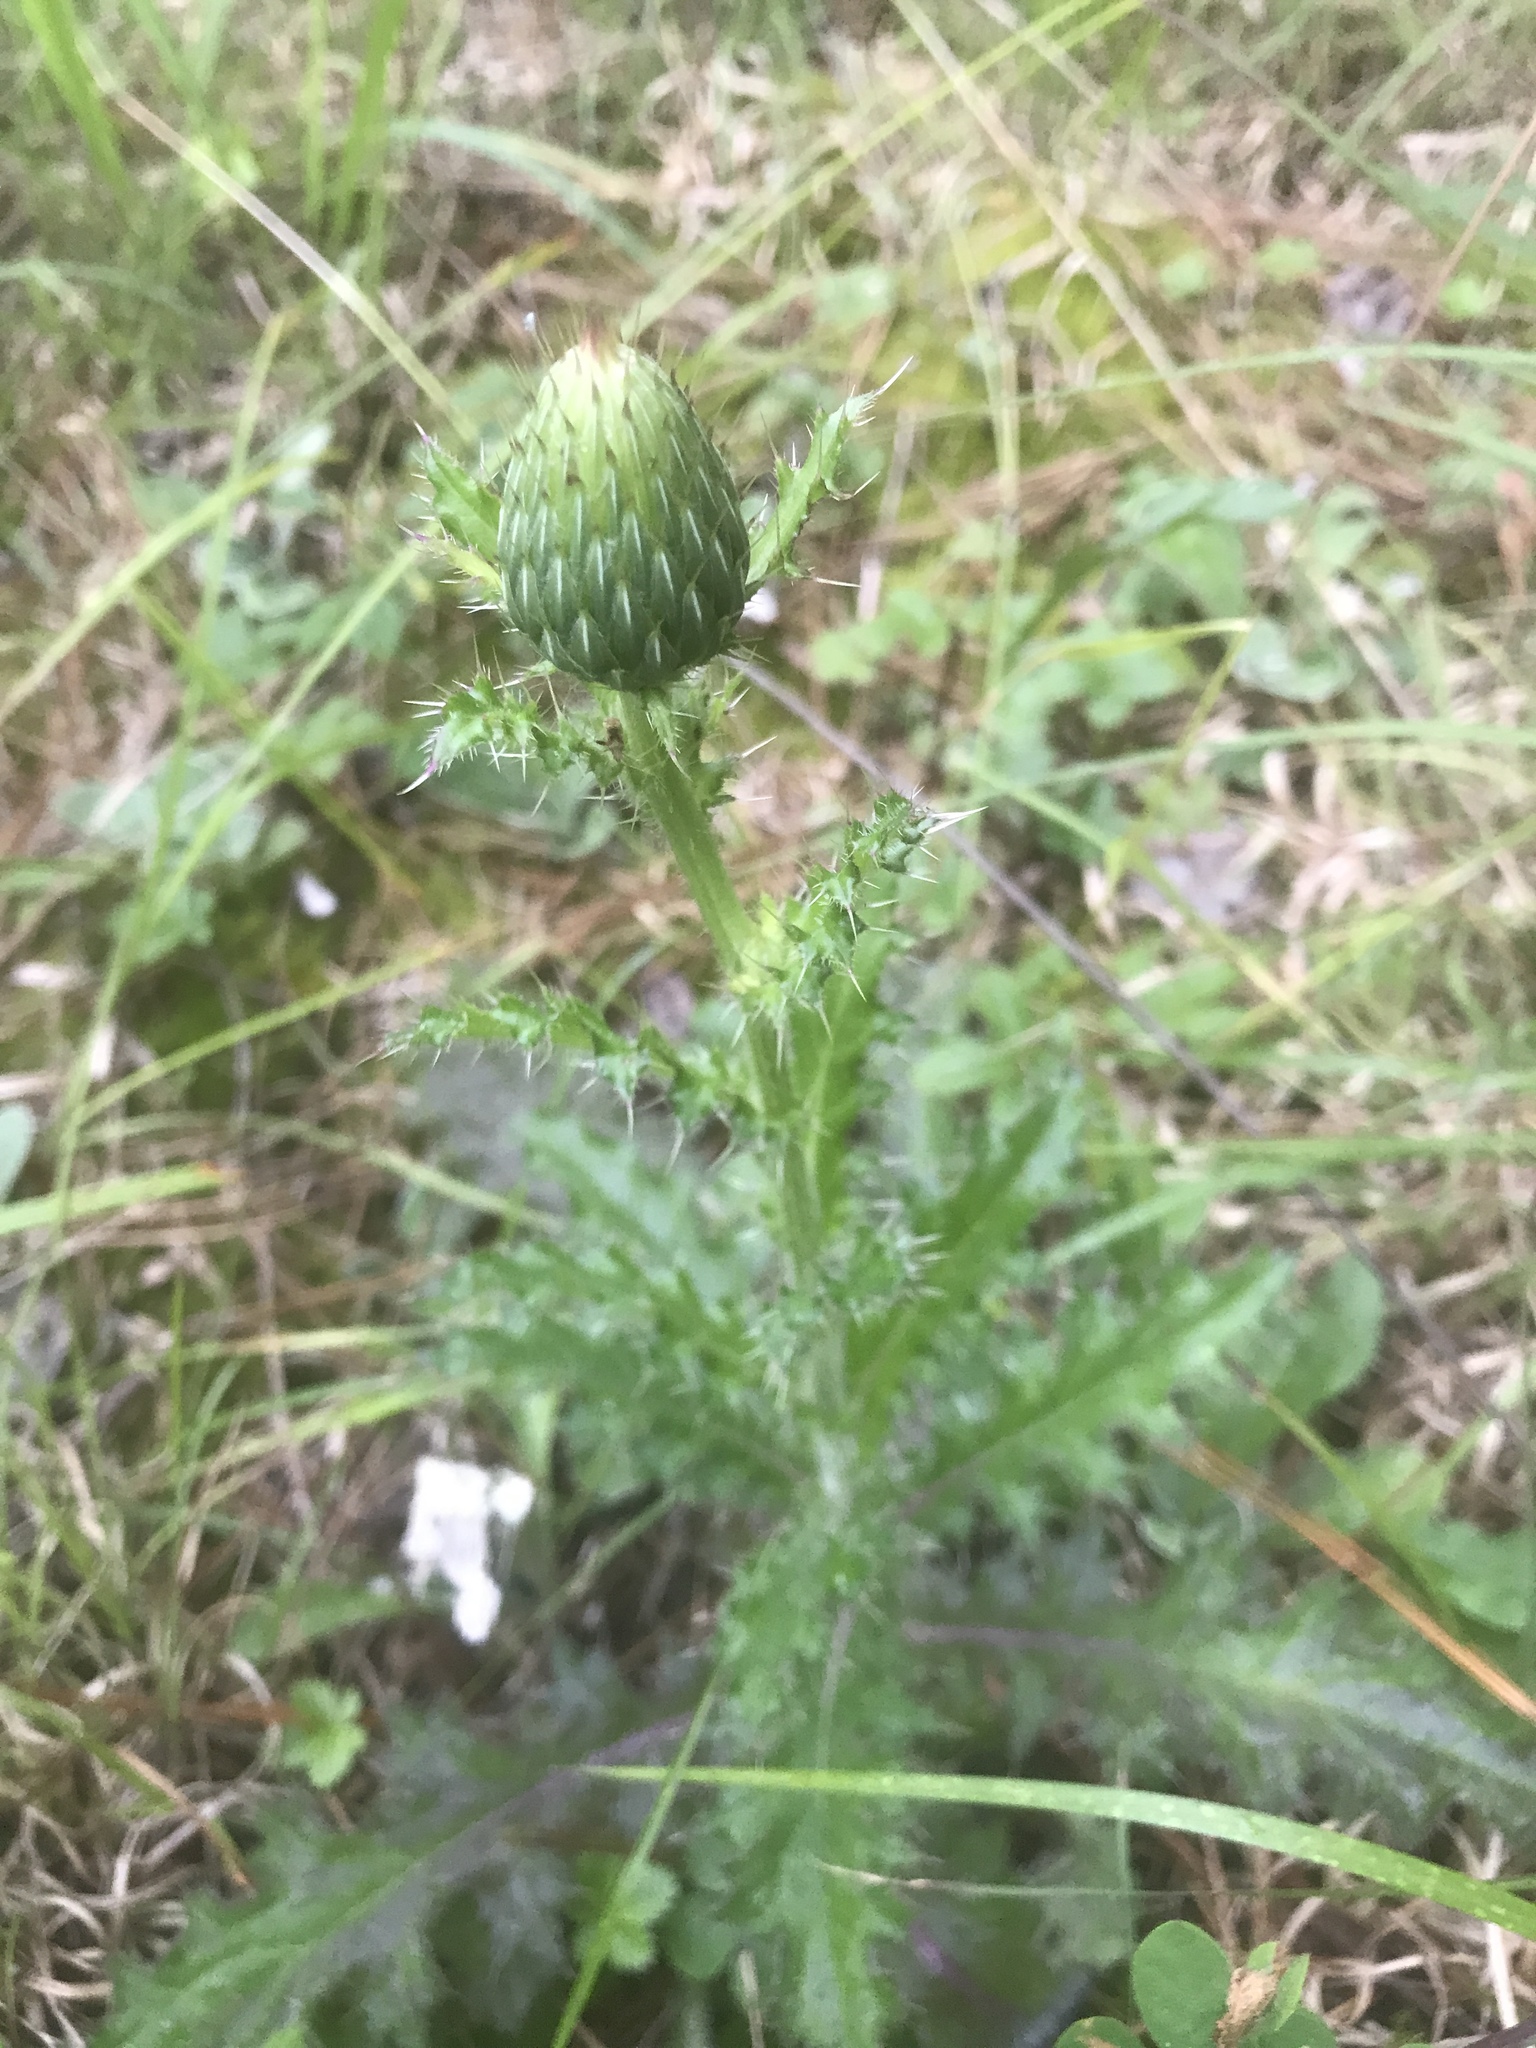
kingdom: Plantae
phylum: Tracheophyta
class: Magnoliopsida
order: Asterales
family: Asteraceae
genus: Cirsium
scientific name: Cirsium pumilum
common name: Pasture thistle
